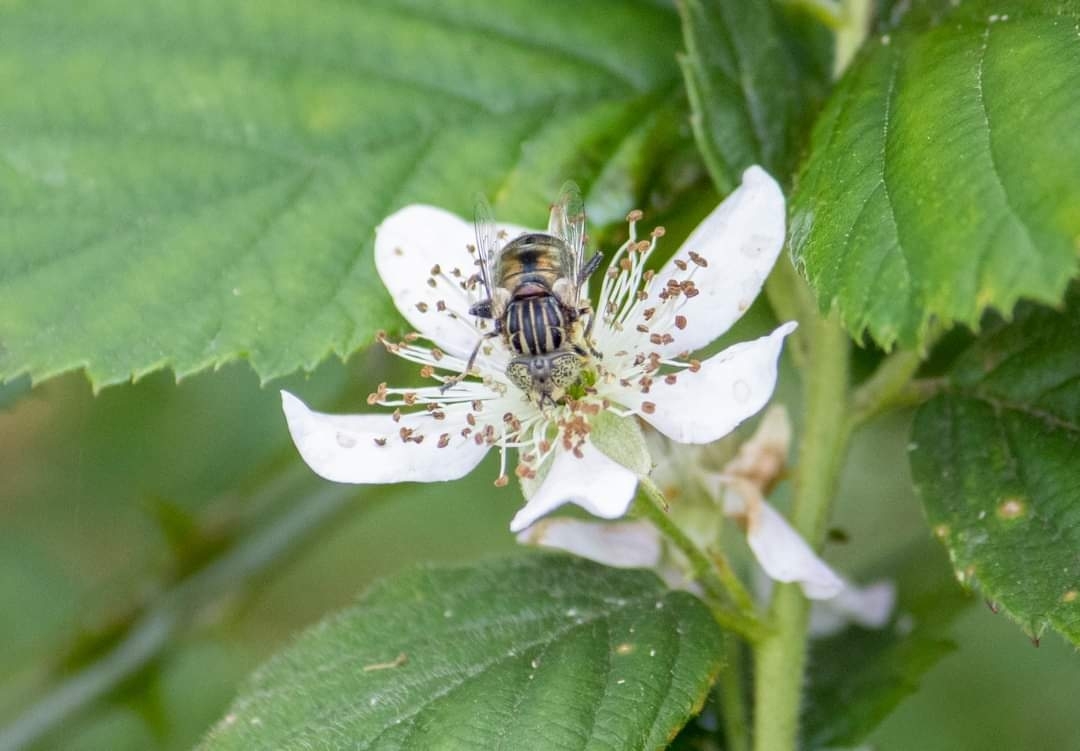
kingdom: Animalia
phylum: Arthropoda
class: Insecta
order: Diptera
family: Syrphidae
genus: Eristalinus
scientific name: Eristalinus sepulchralis
